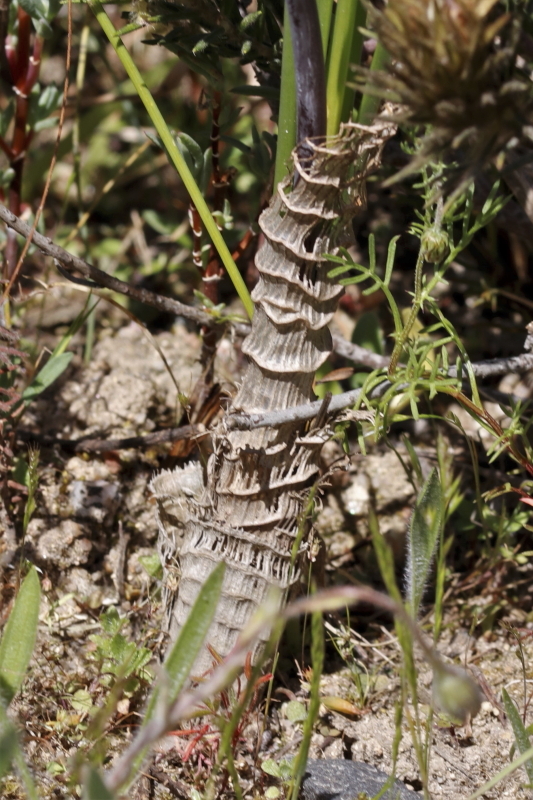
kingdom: Plantae
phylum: Tracheophyta
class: Liliopsida
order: Asparagales
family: Asparagaceae
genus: Drimia
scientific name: Drimia exuviata
